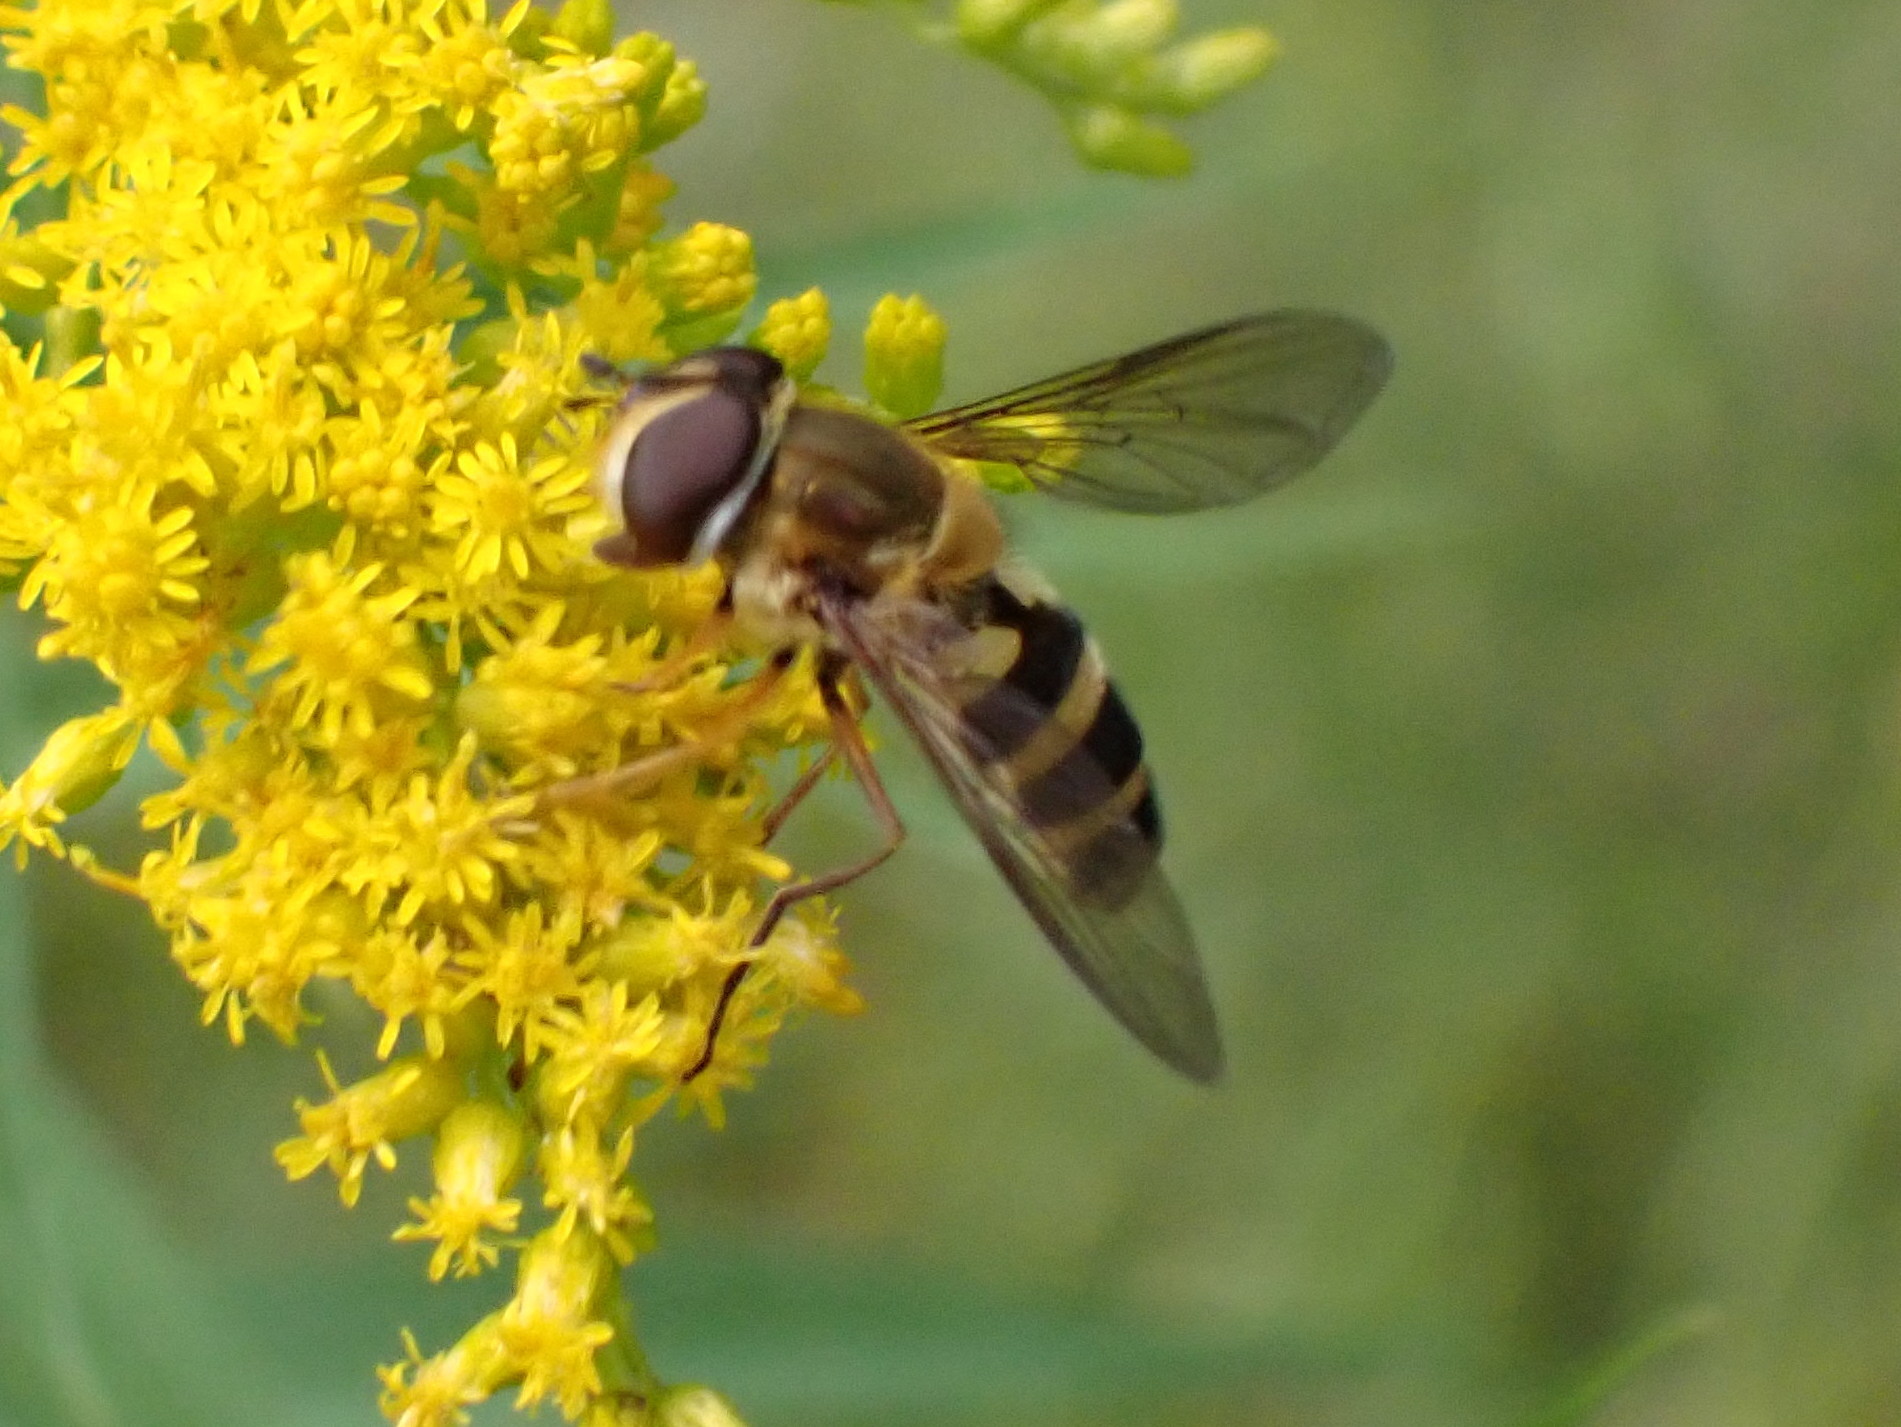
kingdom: Animalia
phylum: Arthropoda
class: Insecta
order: Diptera
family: Syrphidae
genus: Epistrophe
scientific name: Epistrophe grossulariae
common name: Black-horned smoothtail
